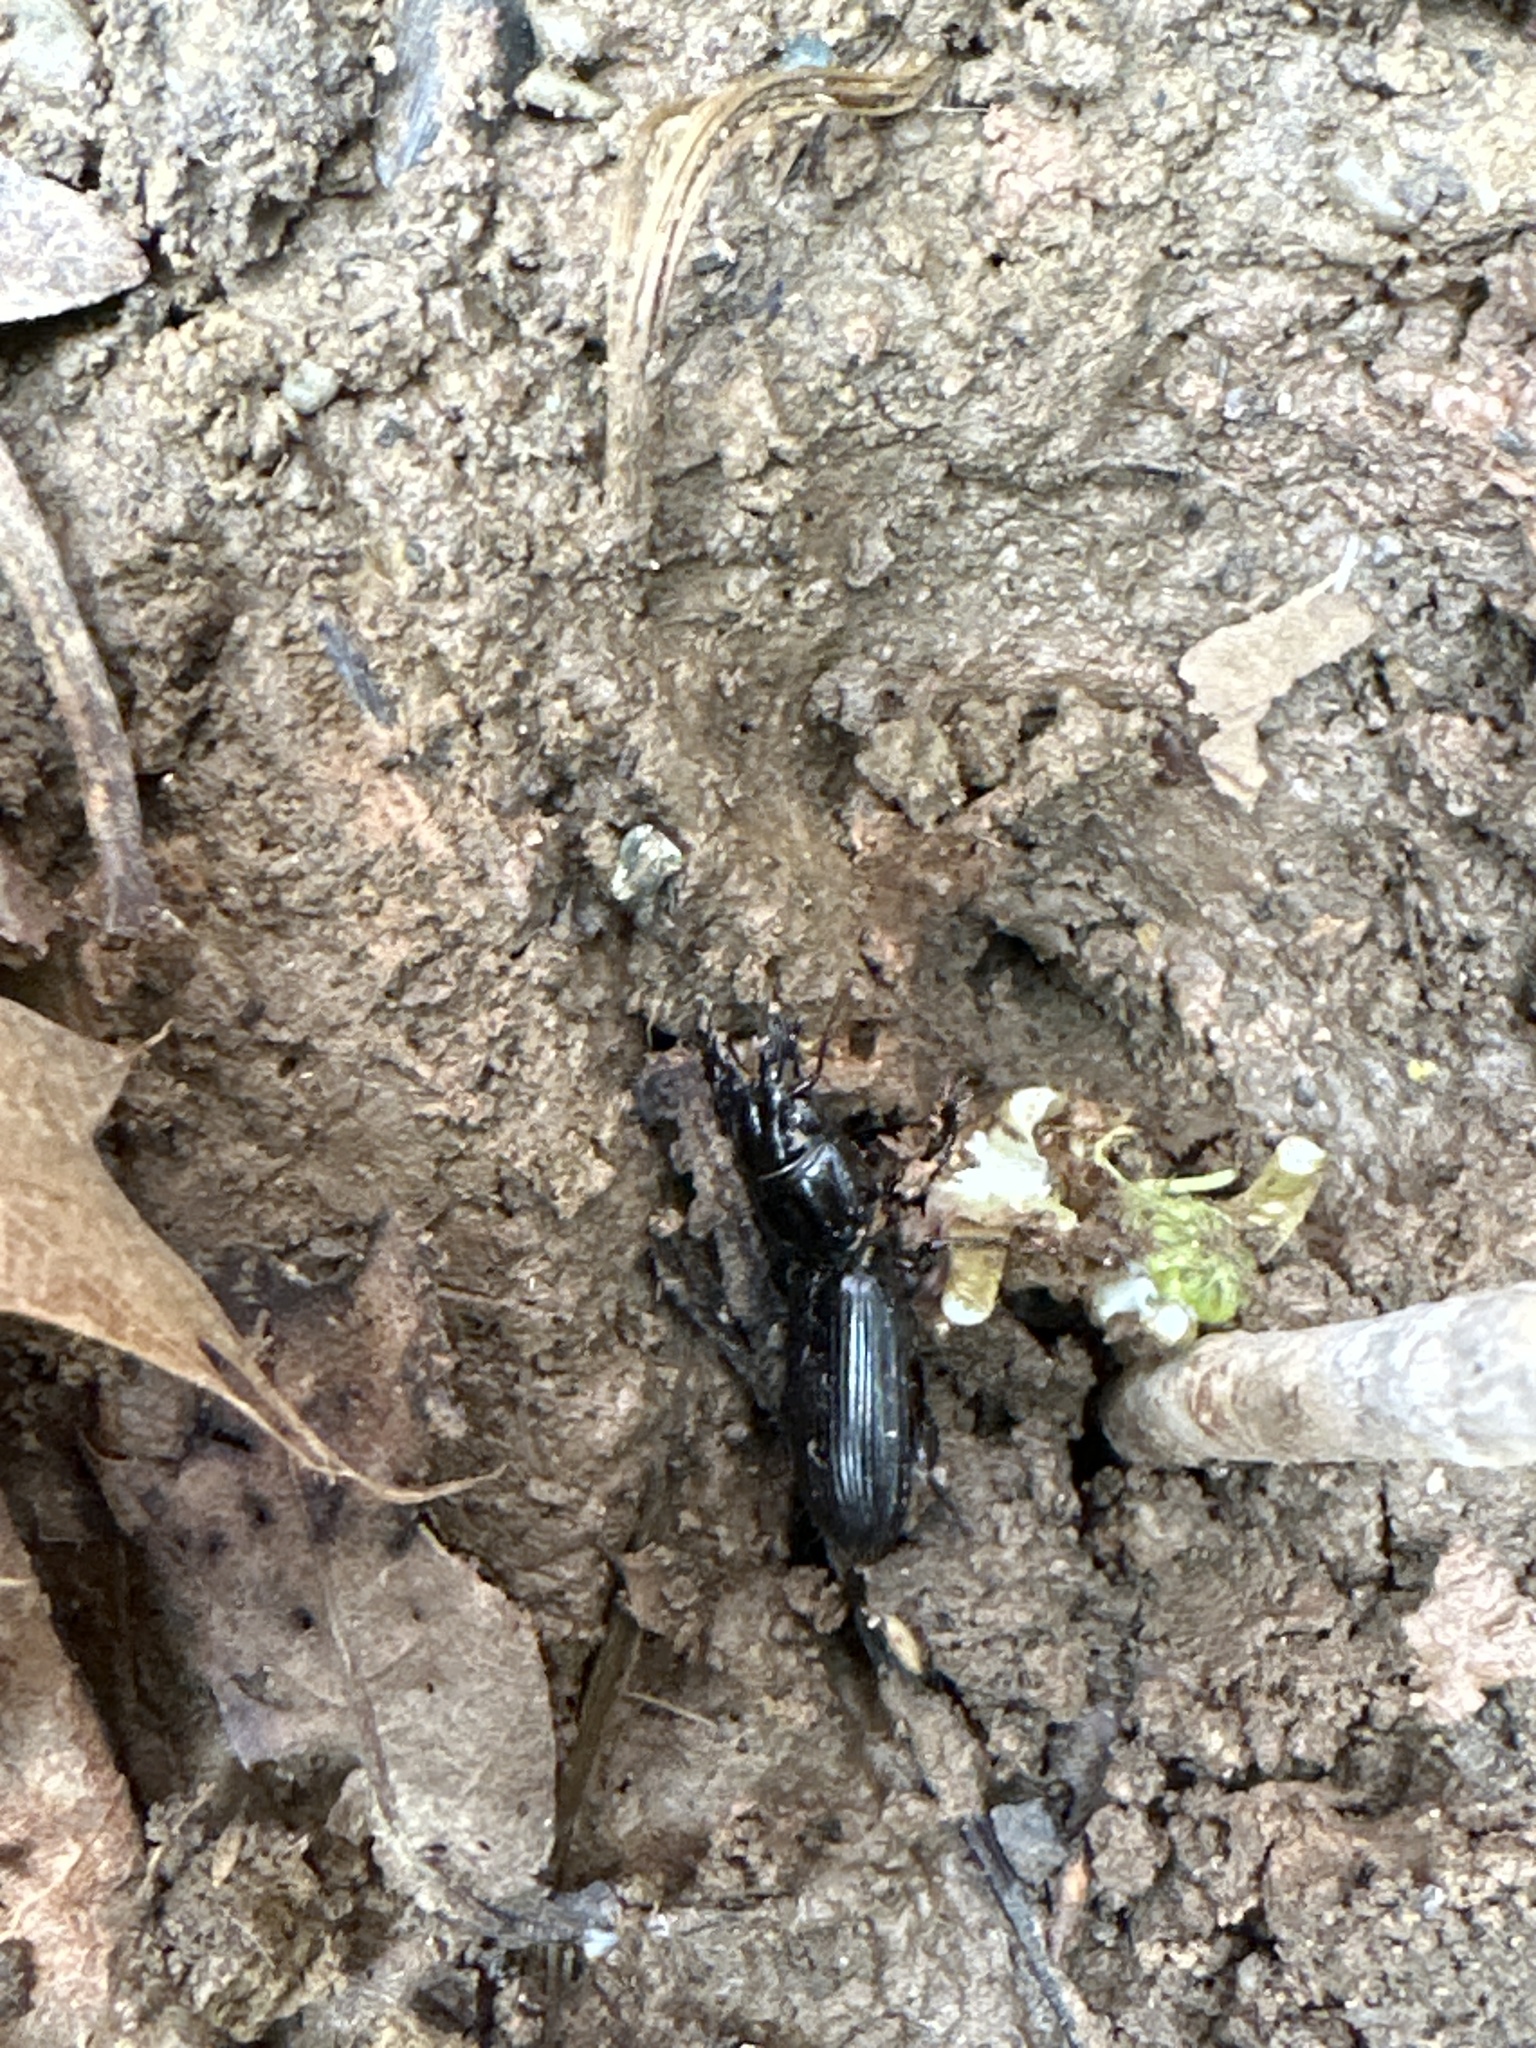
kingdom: Animalia
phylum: Arthropoda
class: Insecta
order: Coleoptera
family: Carabidae
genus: Scarites
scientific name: Scarites subterraneus
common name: Big-headed ground beetle
